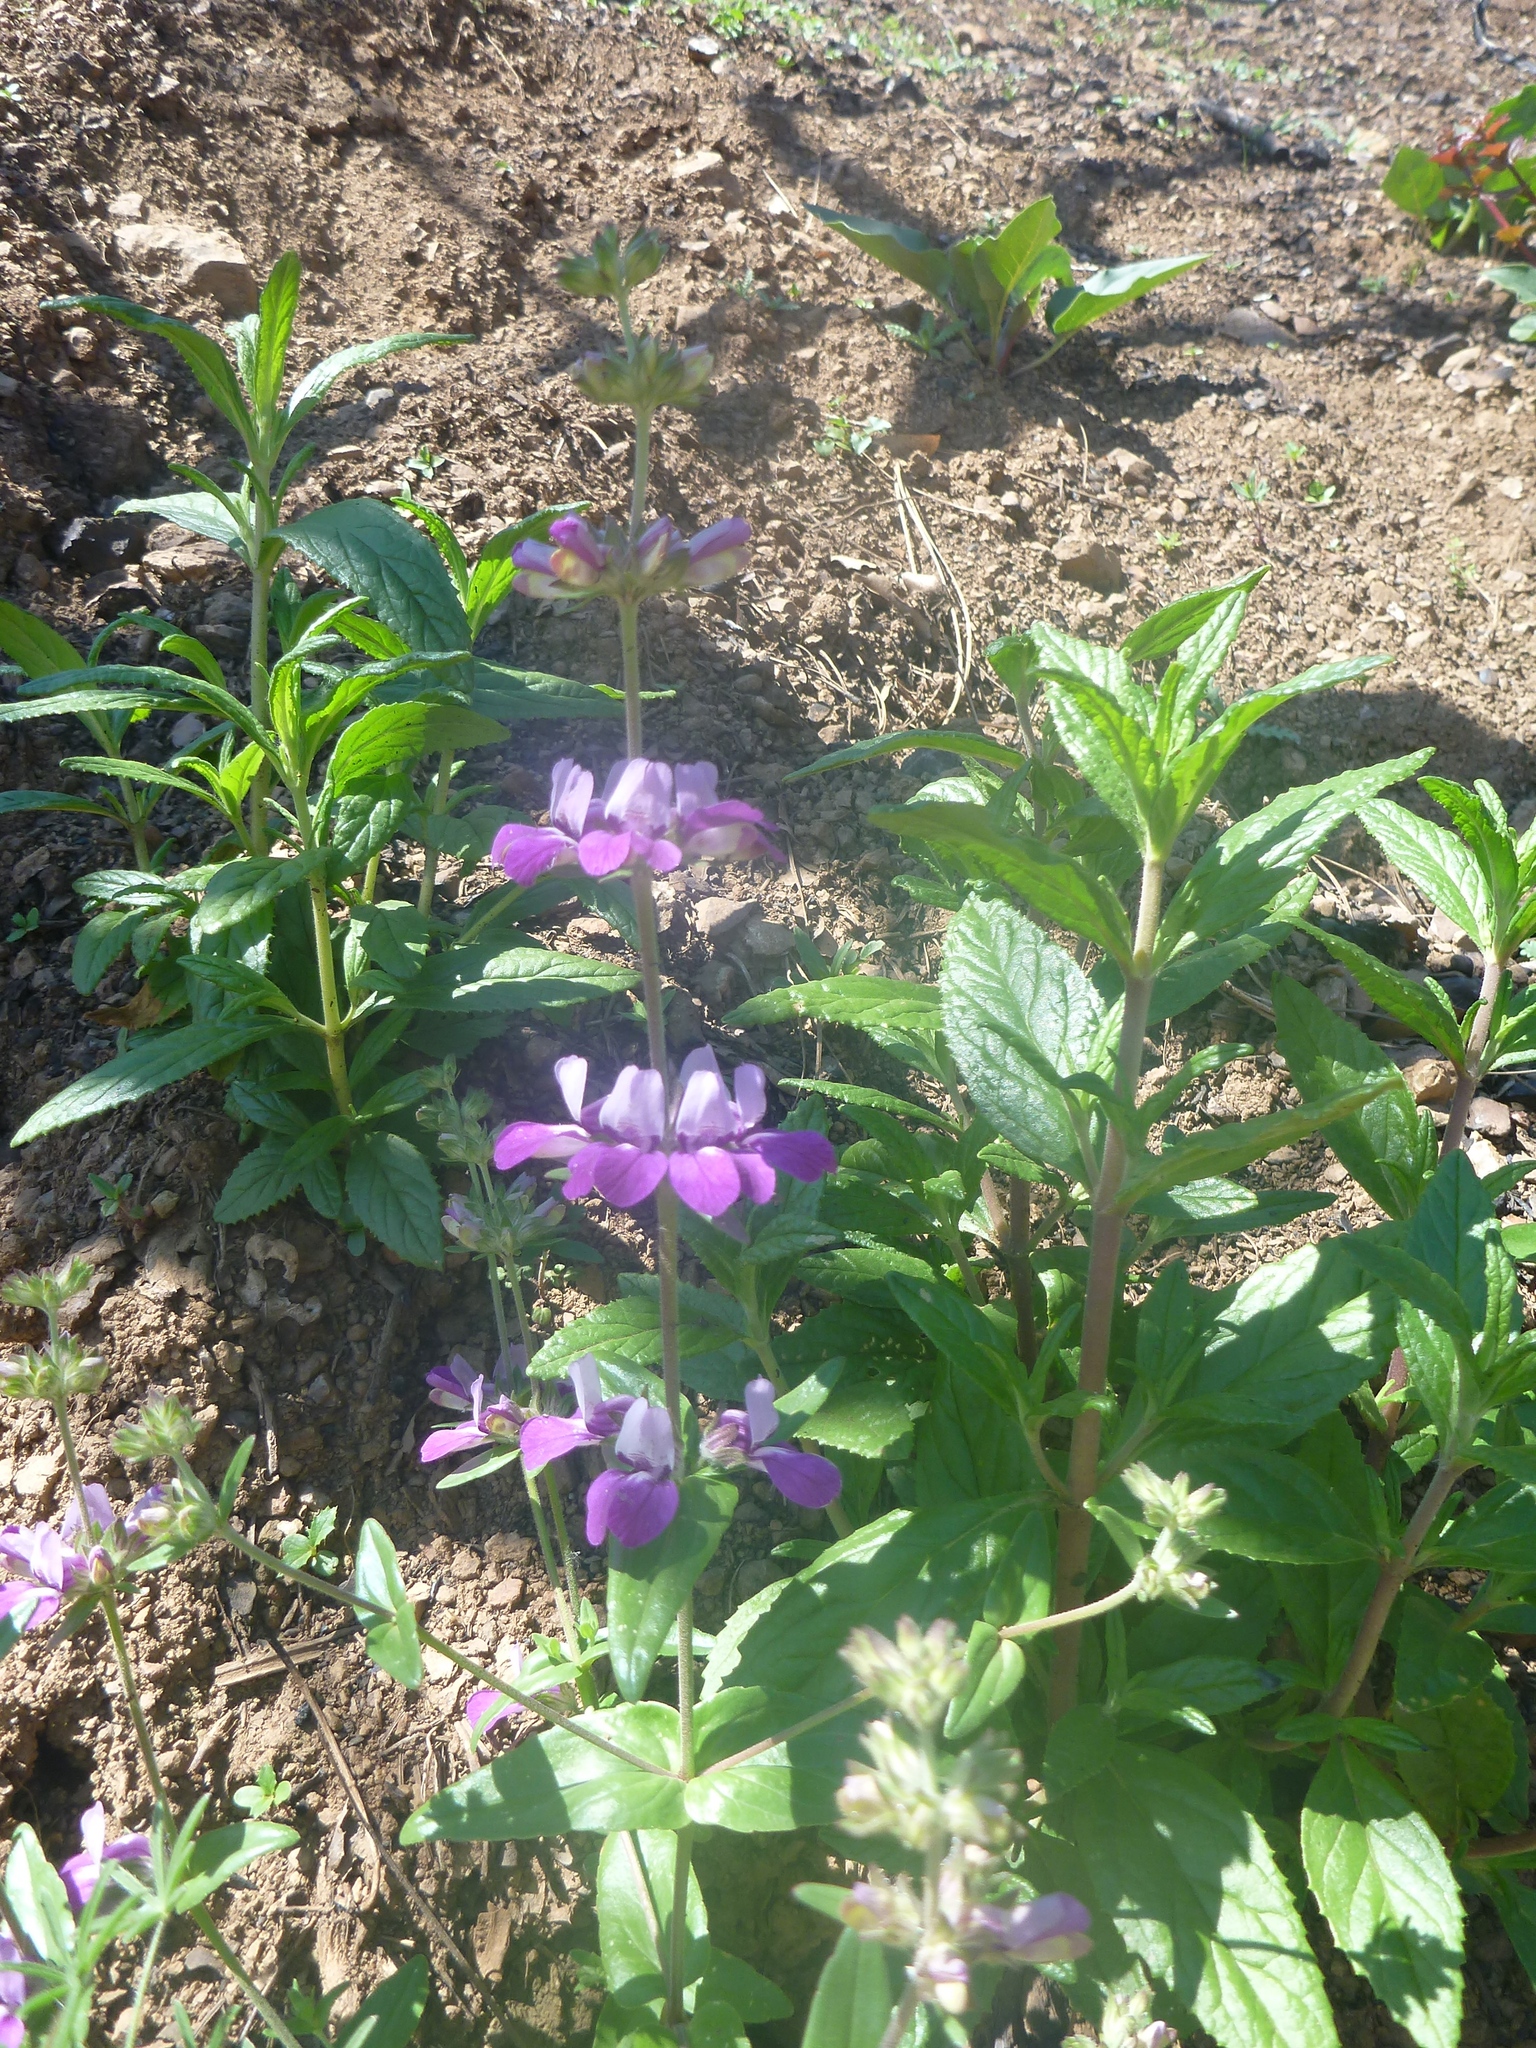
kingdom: Plantae
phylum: Tracheophyta
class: Magnoliopsida
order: Lamiales
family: Plantaginaceae
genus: Collinsia
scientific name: Collinsia heterophylla
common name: Chinese-houses
